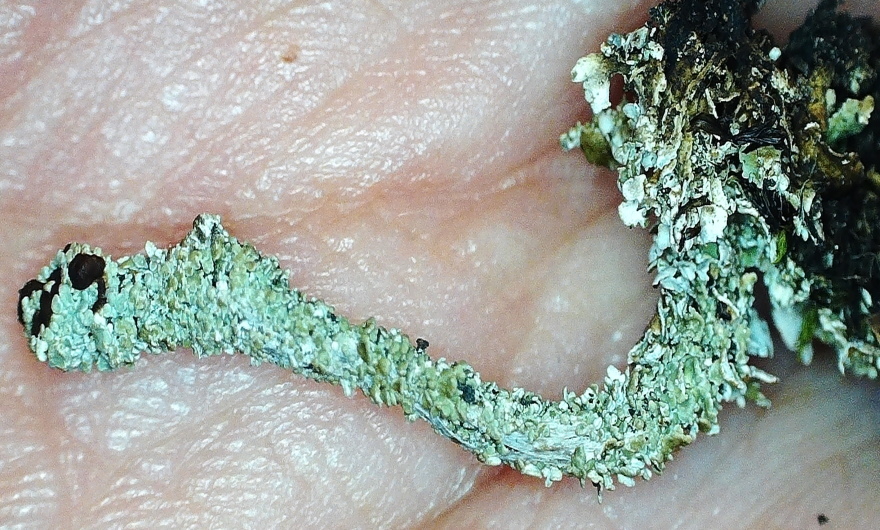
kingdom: Fungi
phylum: Ascomycota
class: Lecanoromycetes
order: Lecanorales
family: Cladoniaceae
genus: Cladonia
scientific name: Cladonia macrophylla
